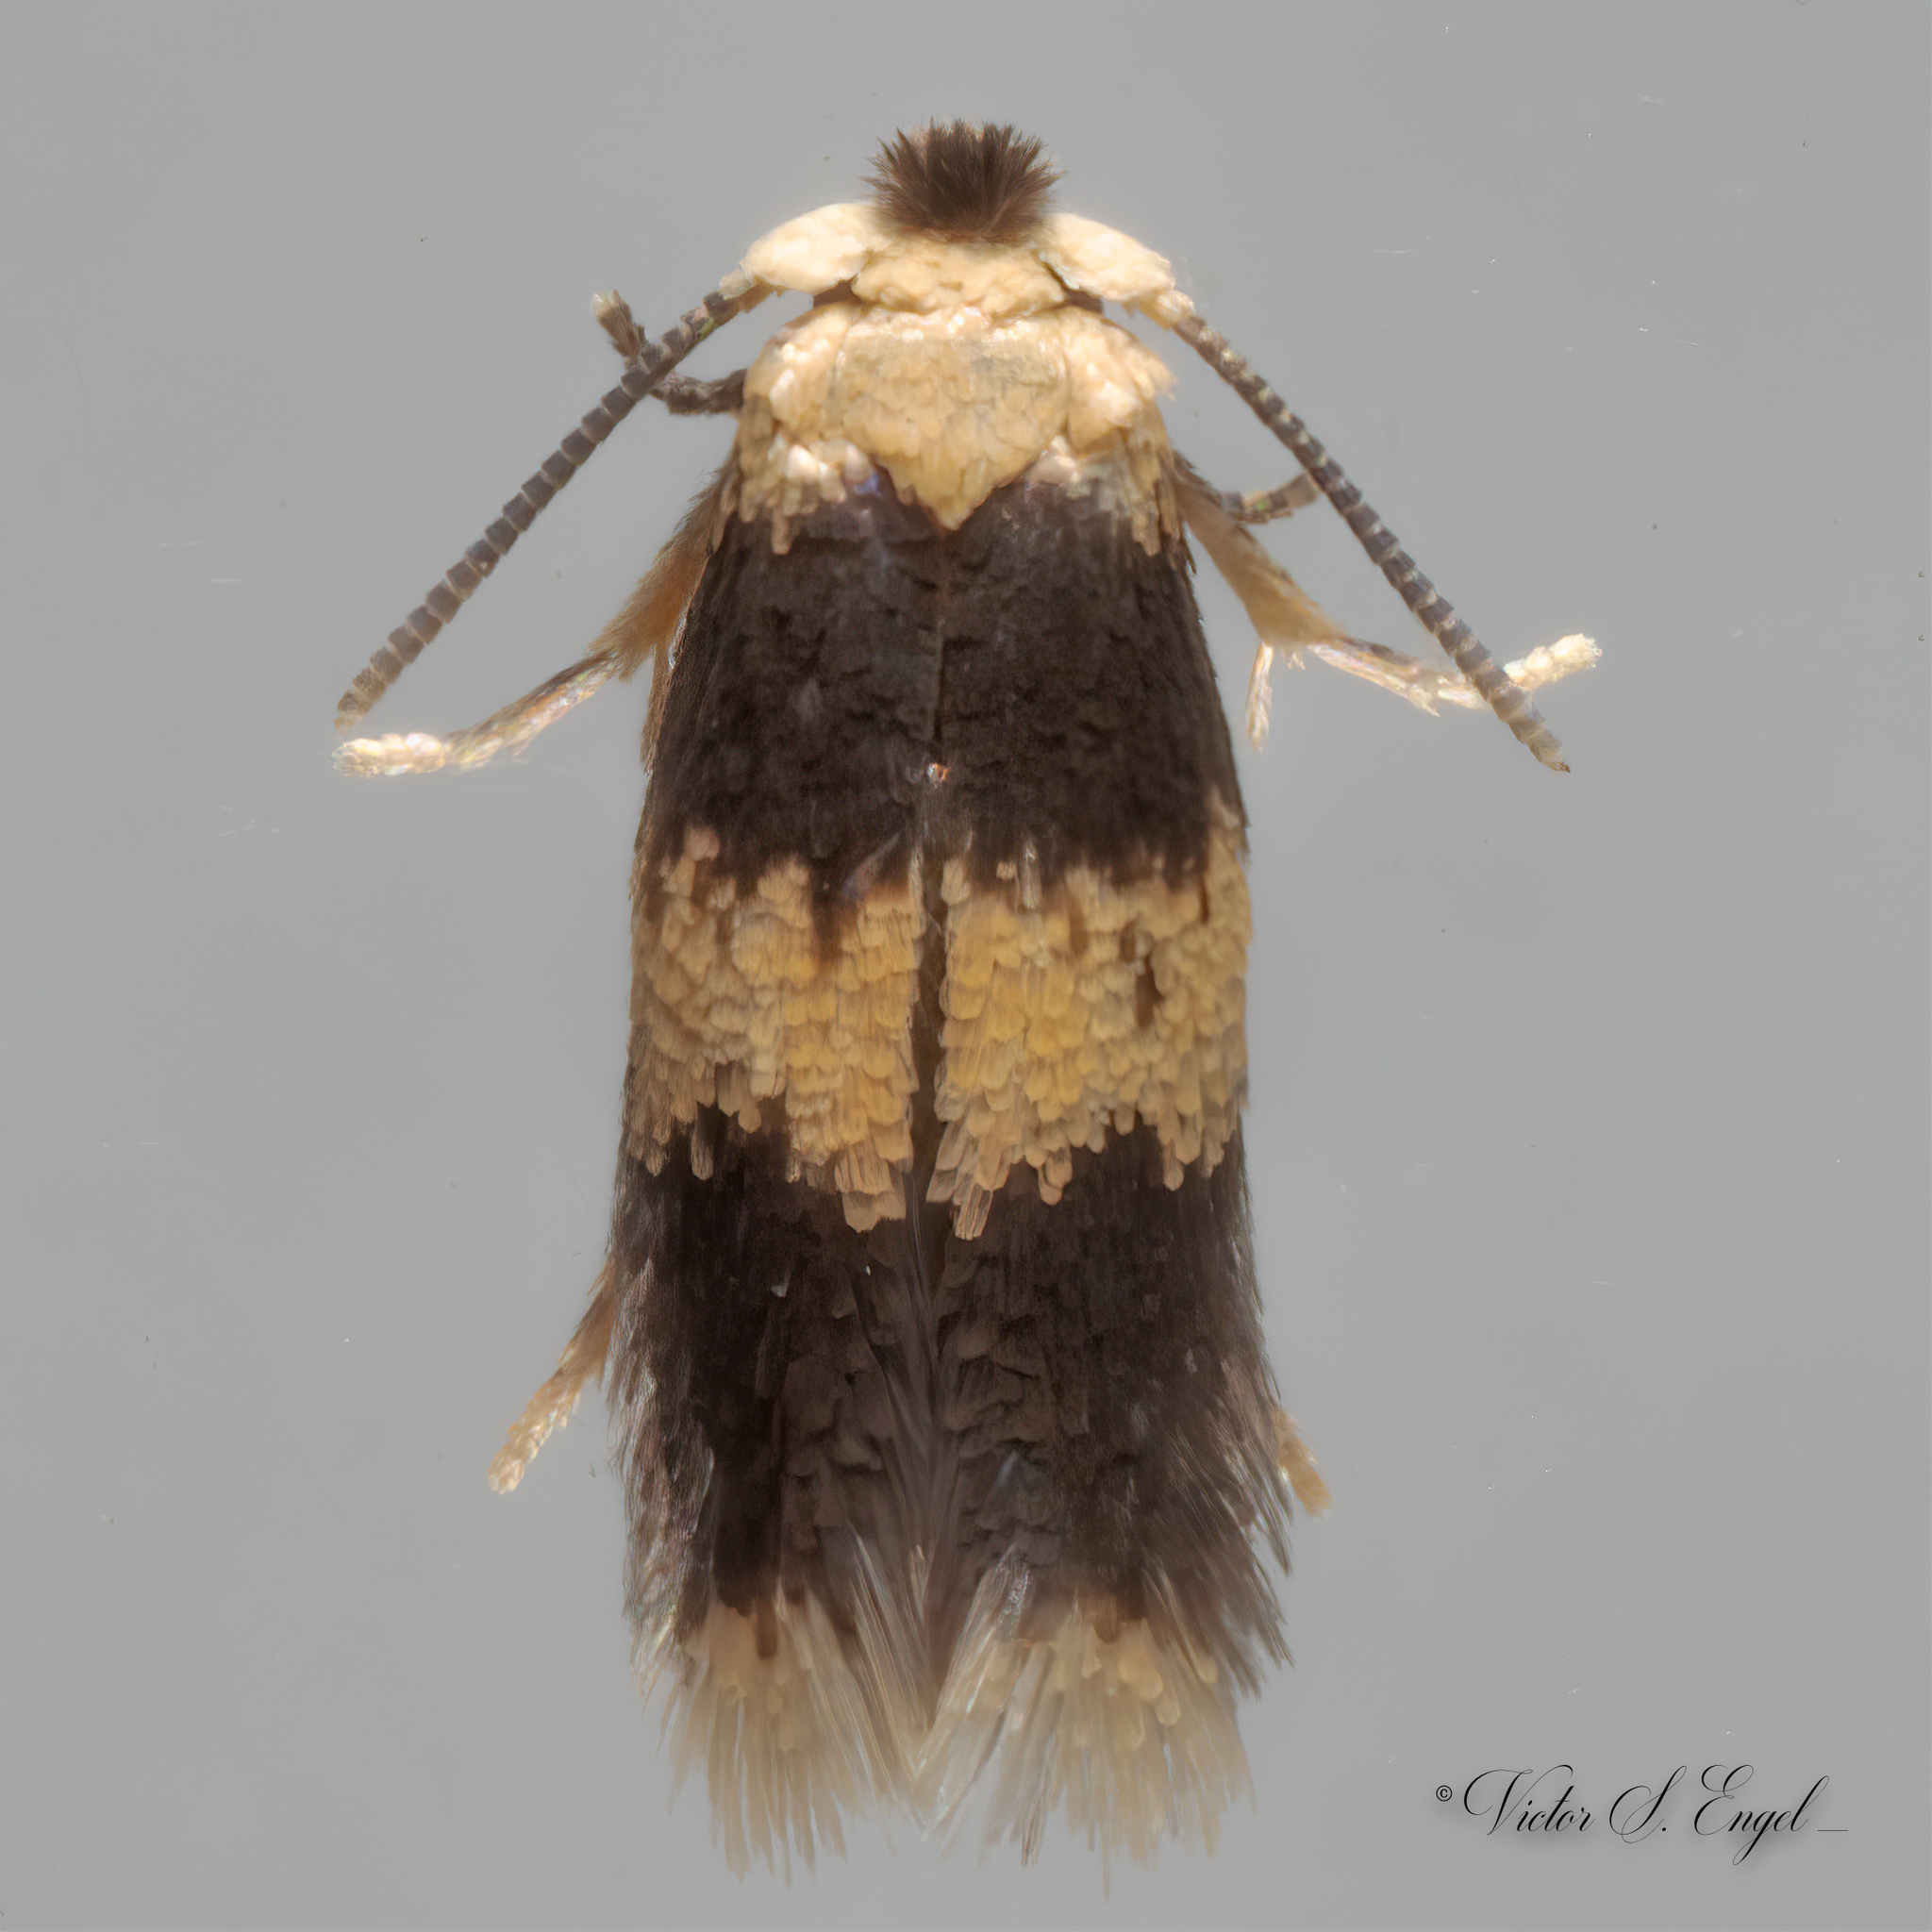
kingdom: Animalia
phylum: Arthropoda
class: Insecta
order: Lepidoptera
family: Nepticulidae
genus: Stigmella
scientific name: Stigmella nigriverticella
